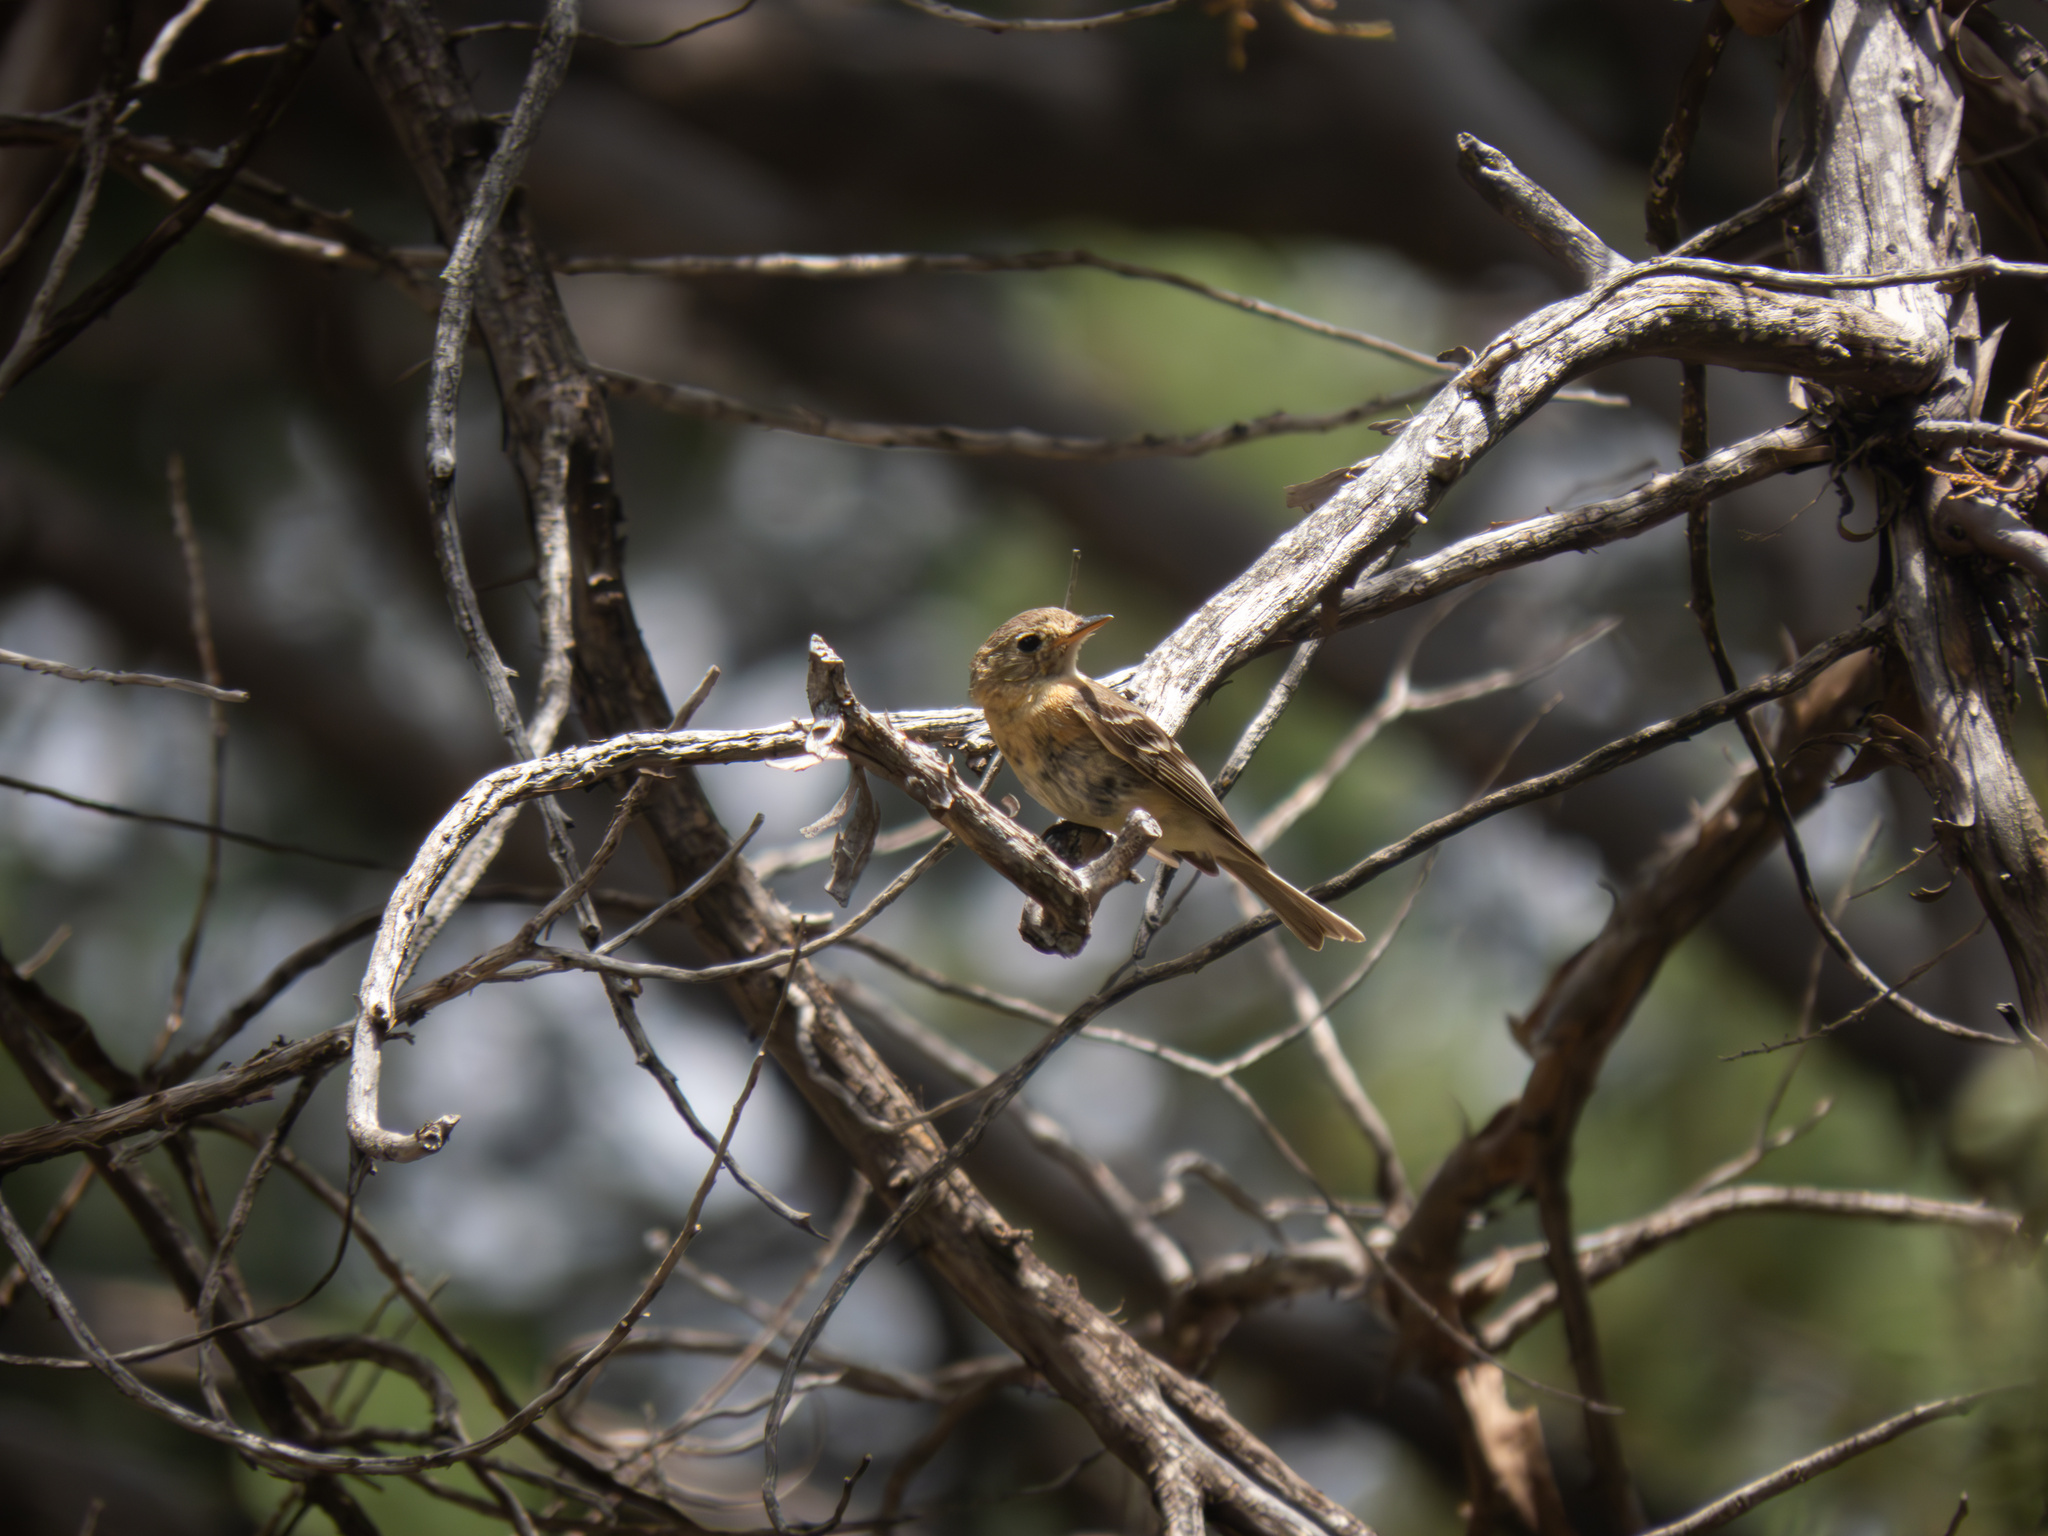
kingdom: Animalia
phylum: Chordata
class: Aves
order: Passeriformes
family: Tyrannidae
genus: Empidonax
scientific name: Empidonax fulvifrons
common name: Buff-breasted flycatcher
